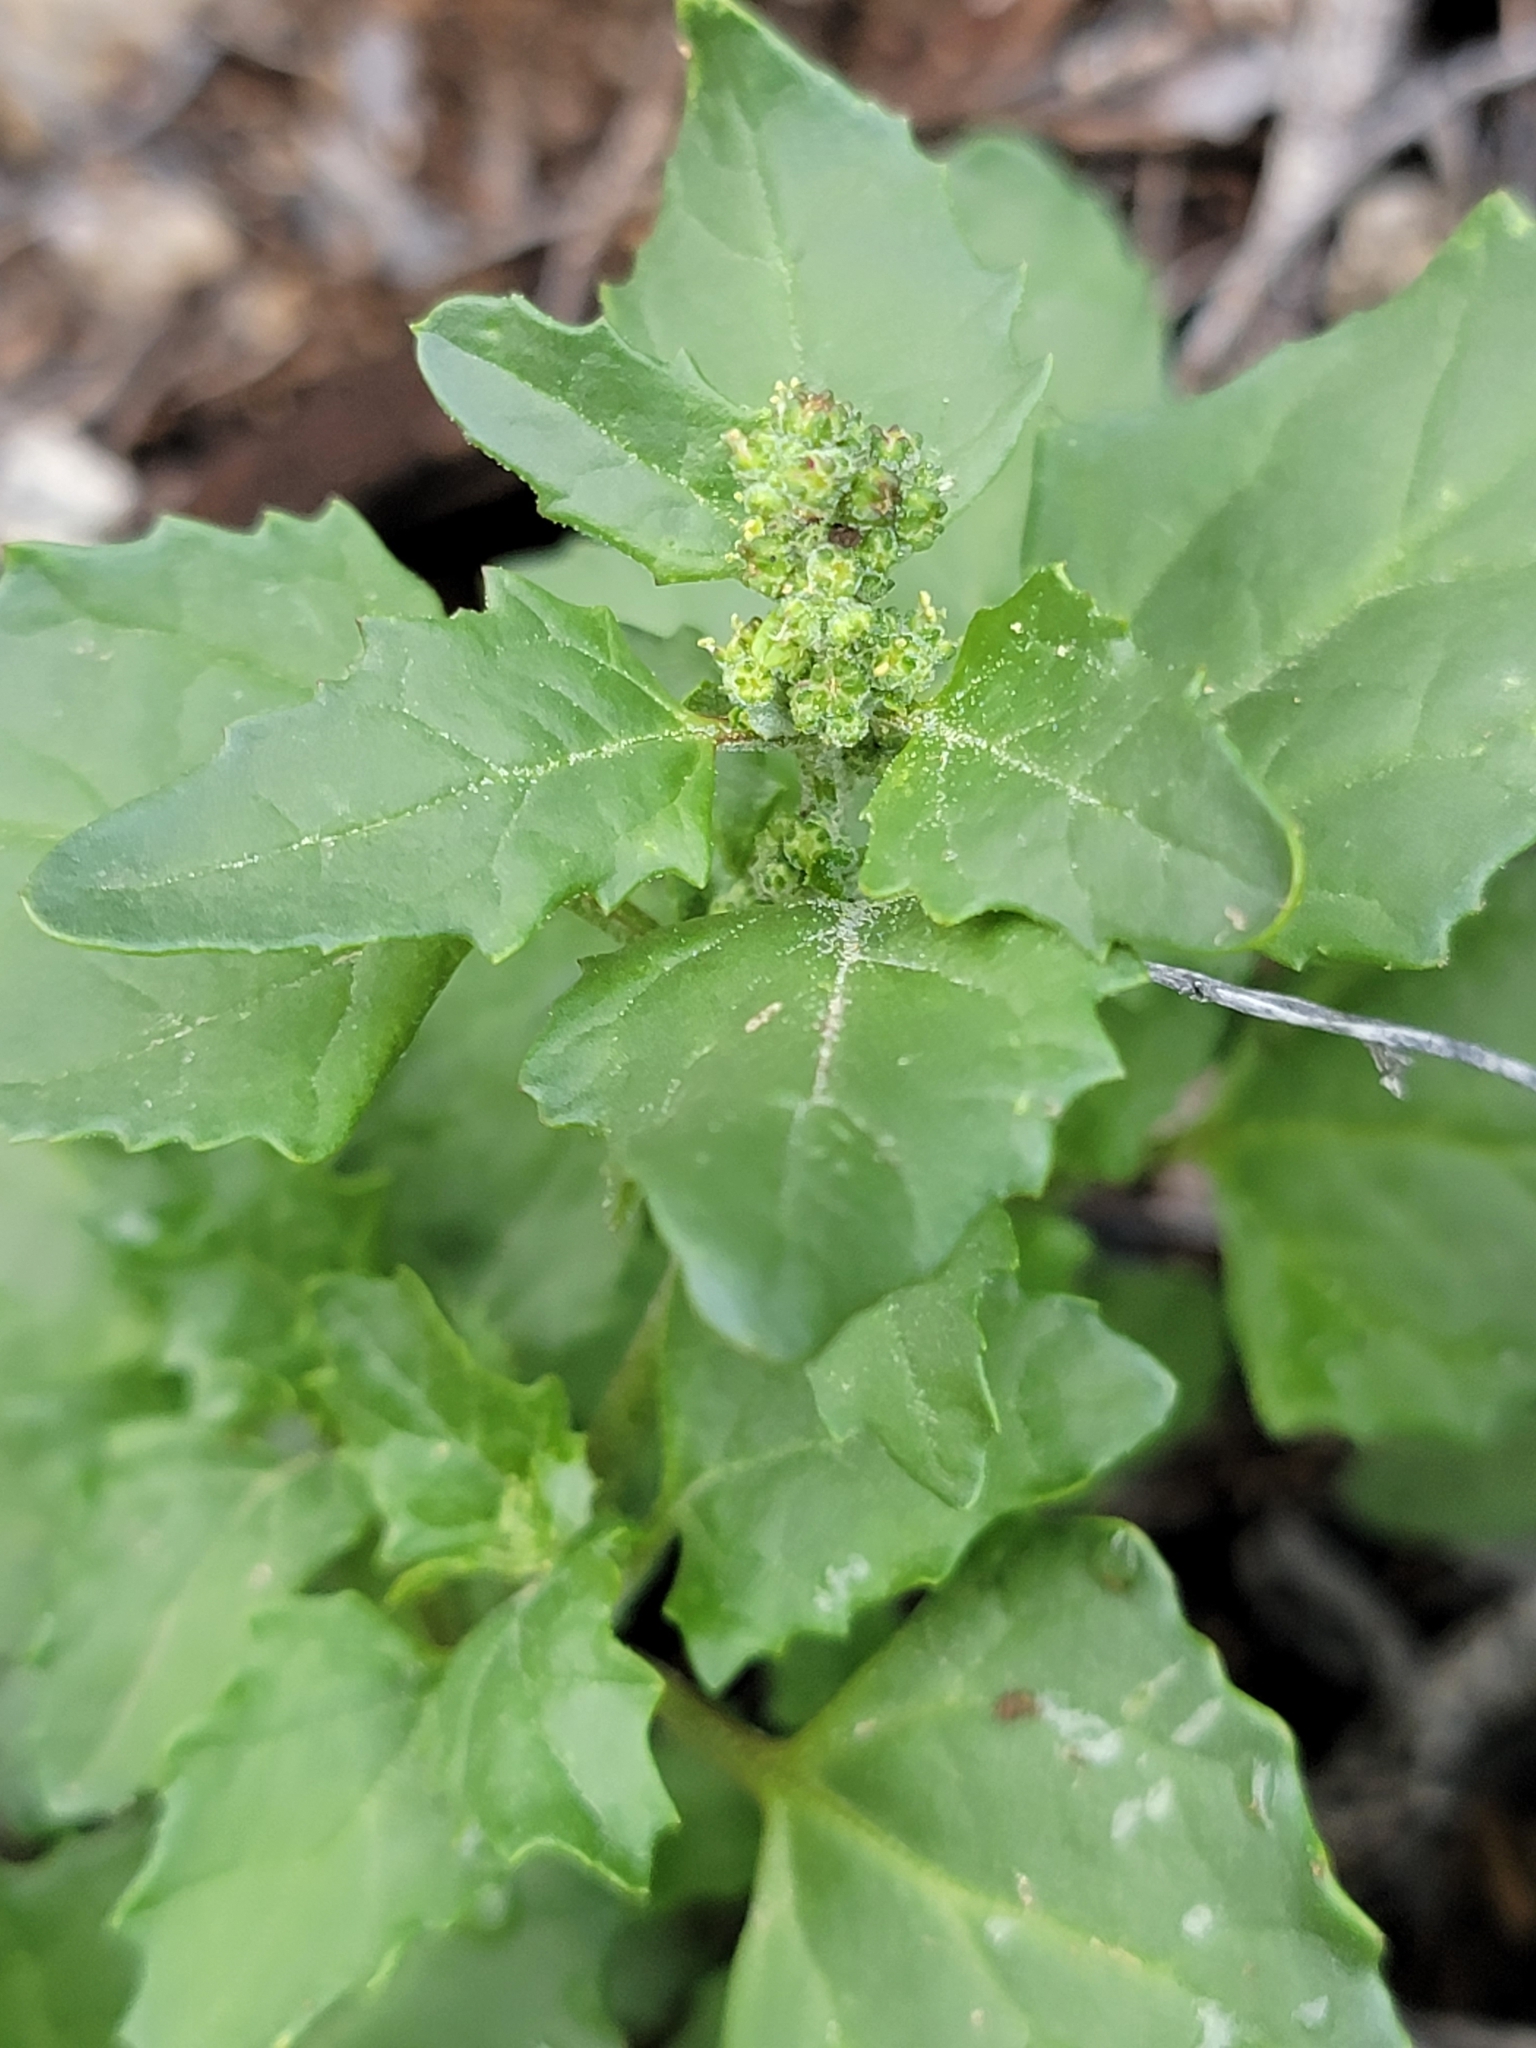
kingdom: Plantae
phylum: Tracheophyta
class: Magnoliopsida
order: Caryophyllales
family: Amaranthaceae
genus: Chenopodiastrum
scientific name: Chenopodiastrum murale
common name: Sowbane
